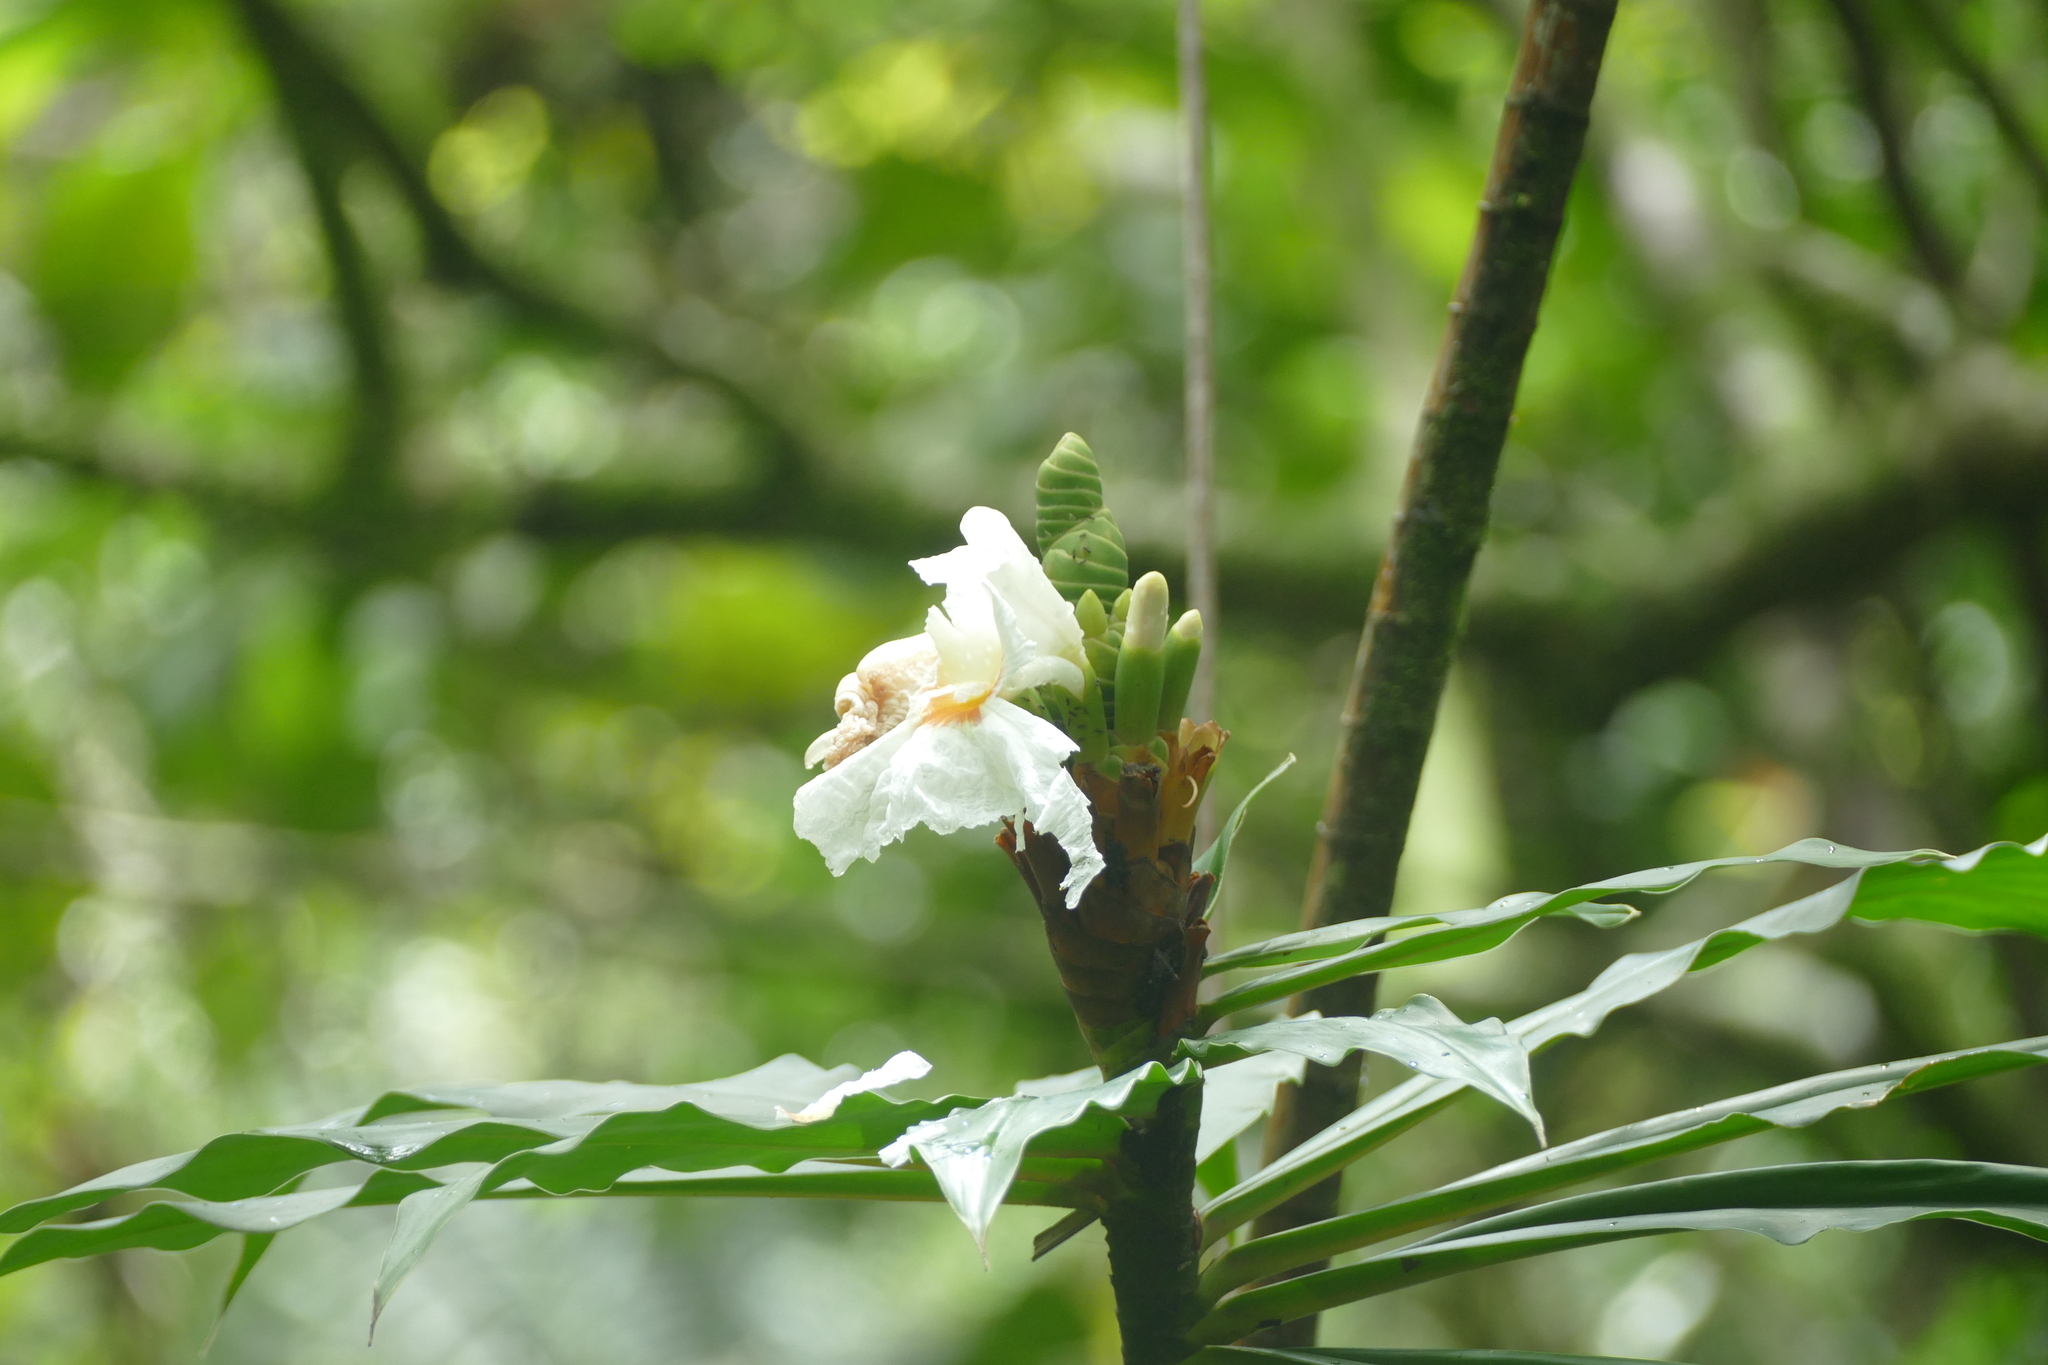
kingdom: Plantae
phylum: Tracheophyta
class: Liliopsida
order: Zingiberales
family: Costaceae
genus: Dimerocostus
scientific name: Dimerocostus strobilaceus
